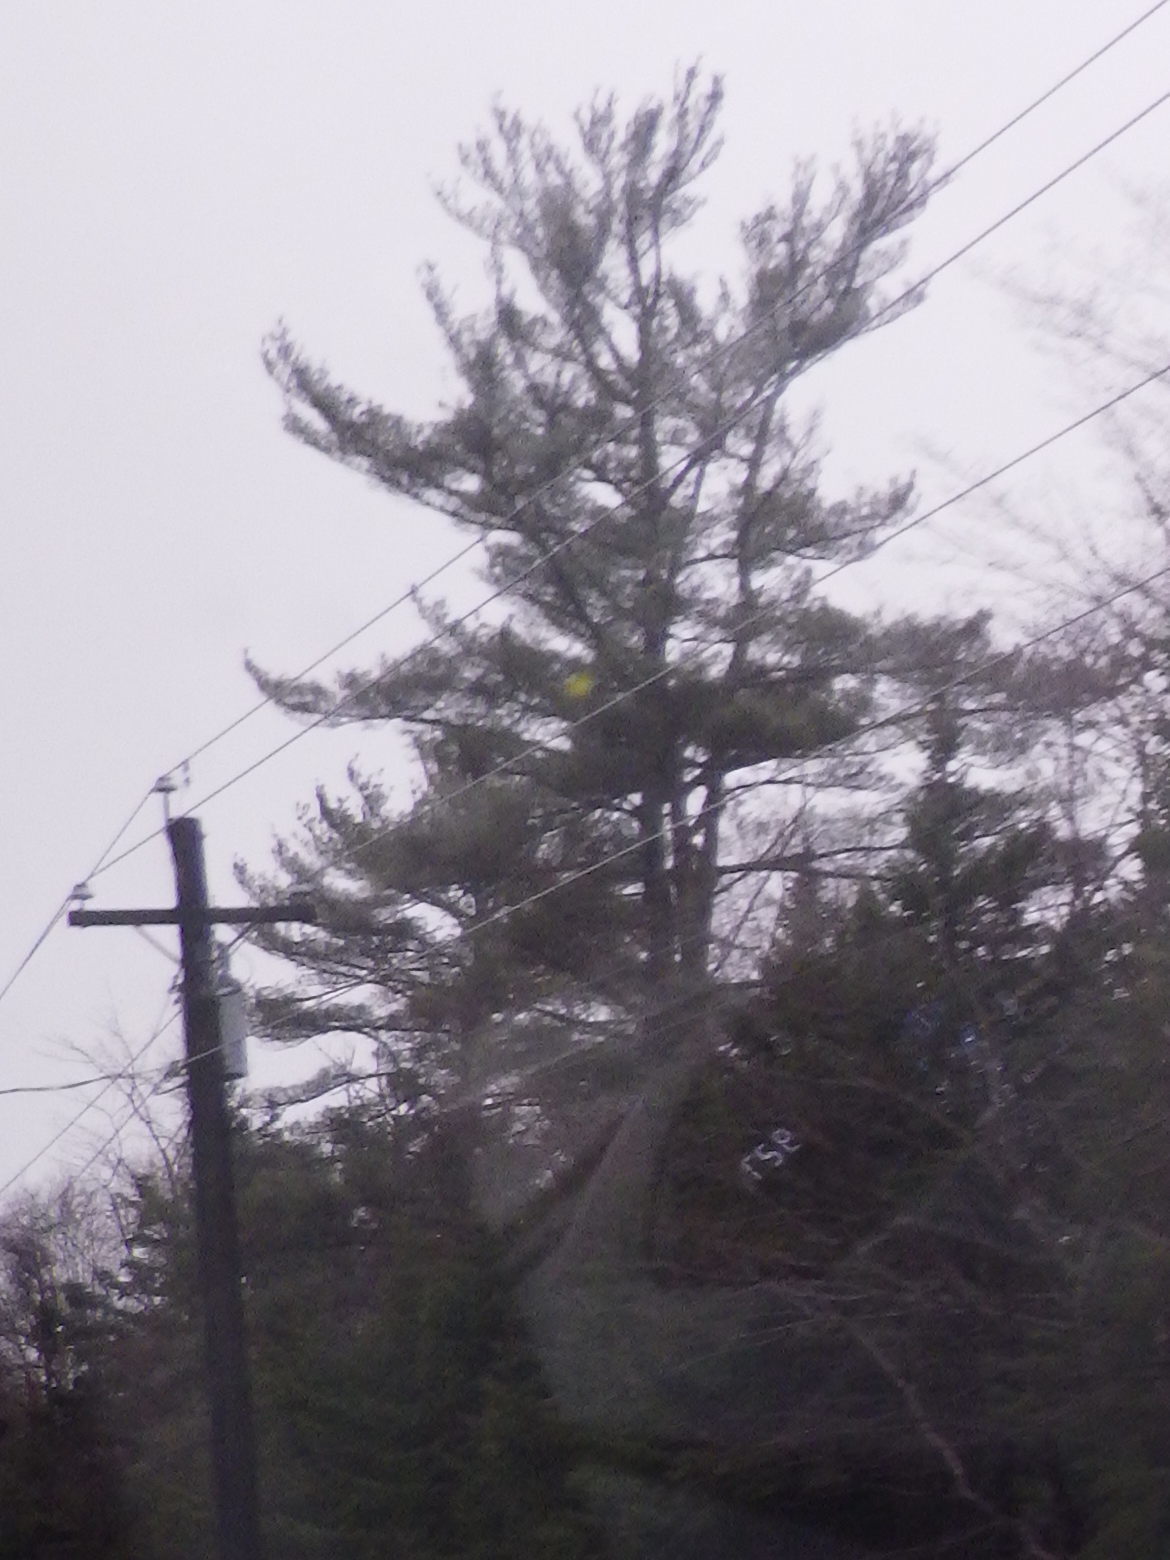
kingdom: Plantae
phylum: Tracheophyta
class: Pinopsida
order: Pinales
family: Pinaceae
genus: Pinus
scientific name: Pinus strobus
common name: Weymouth pine
